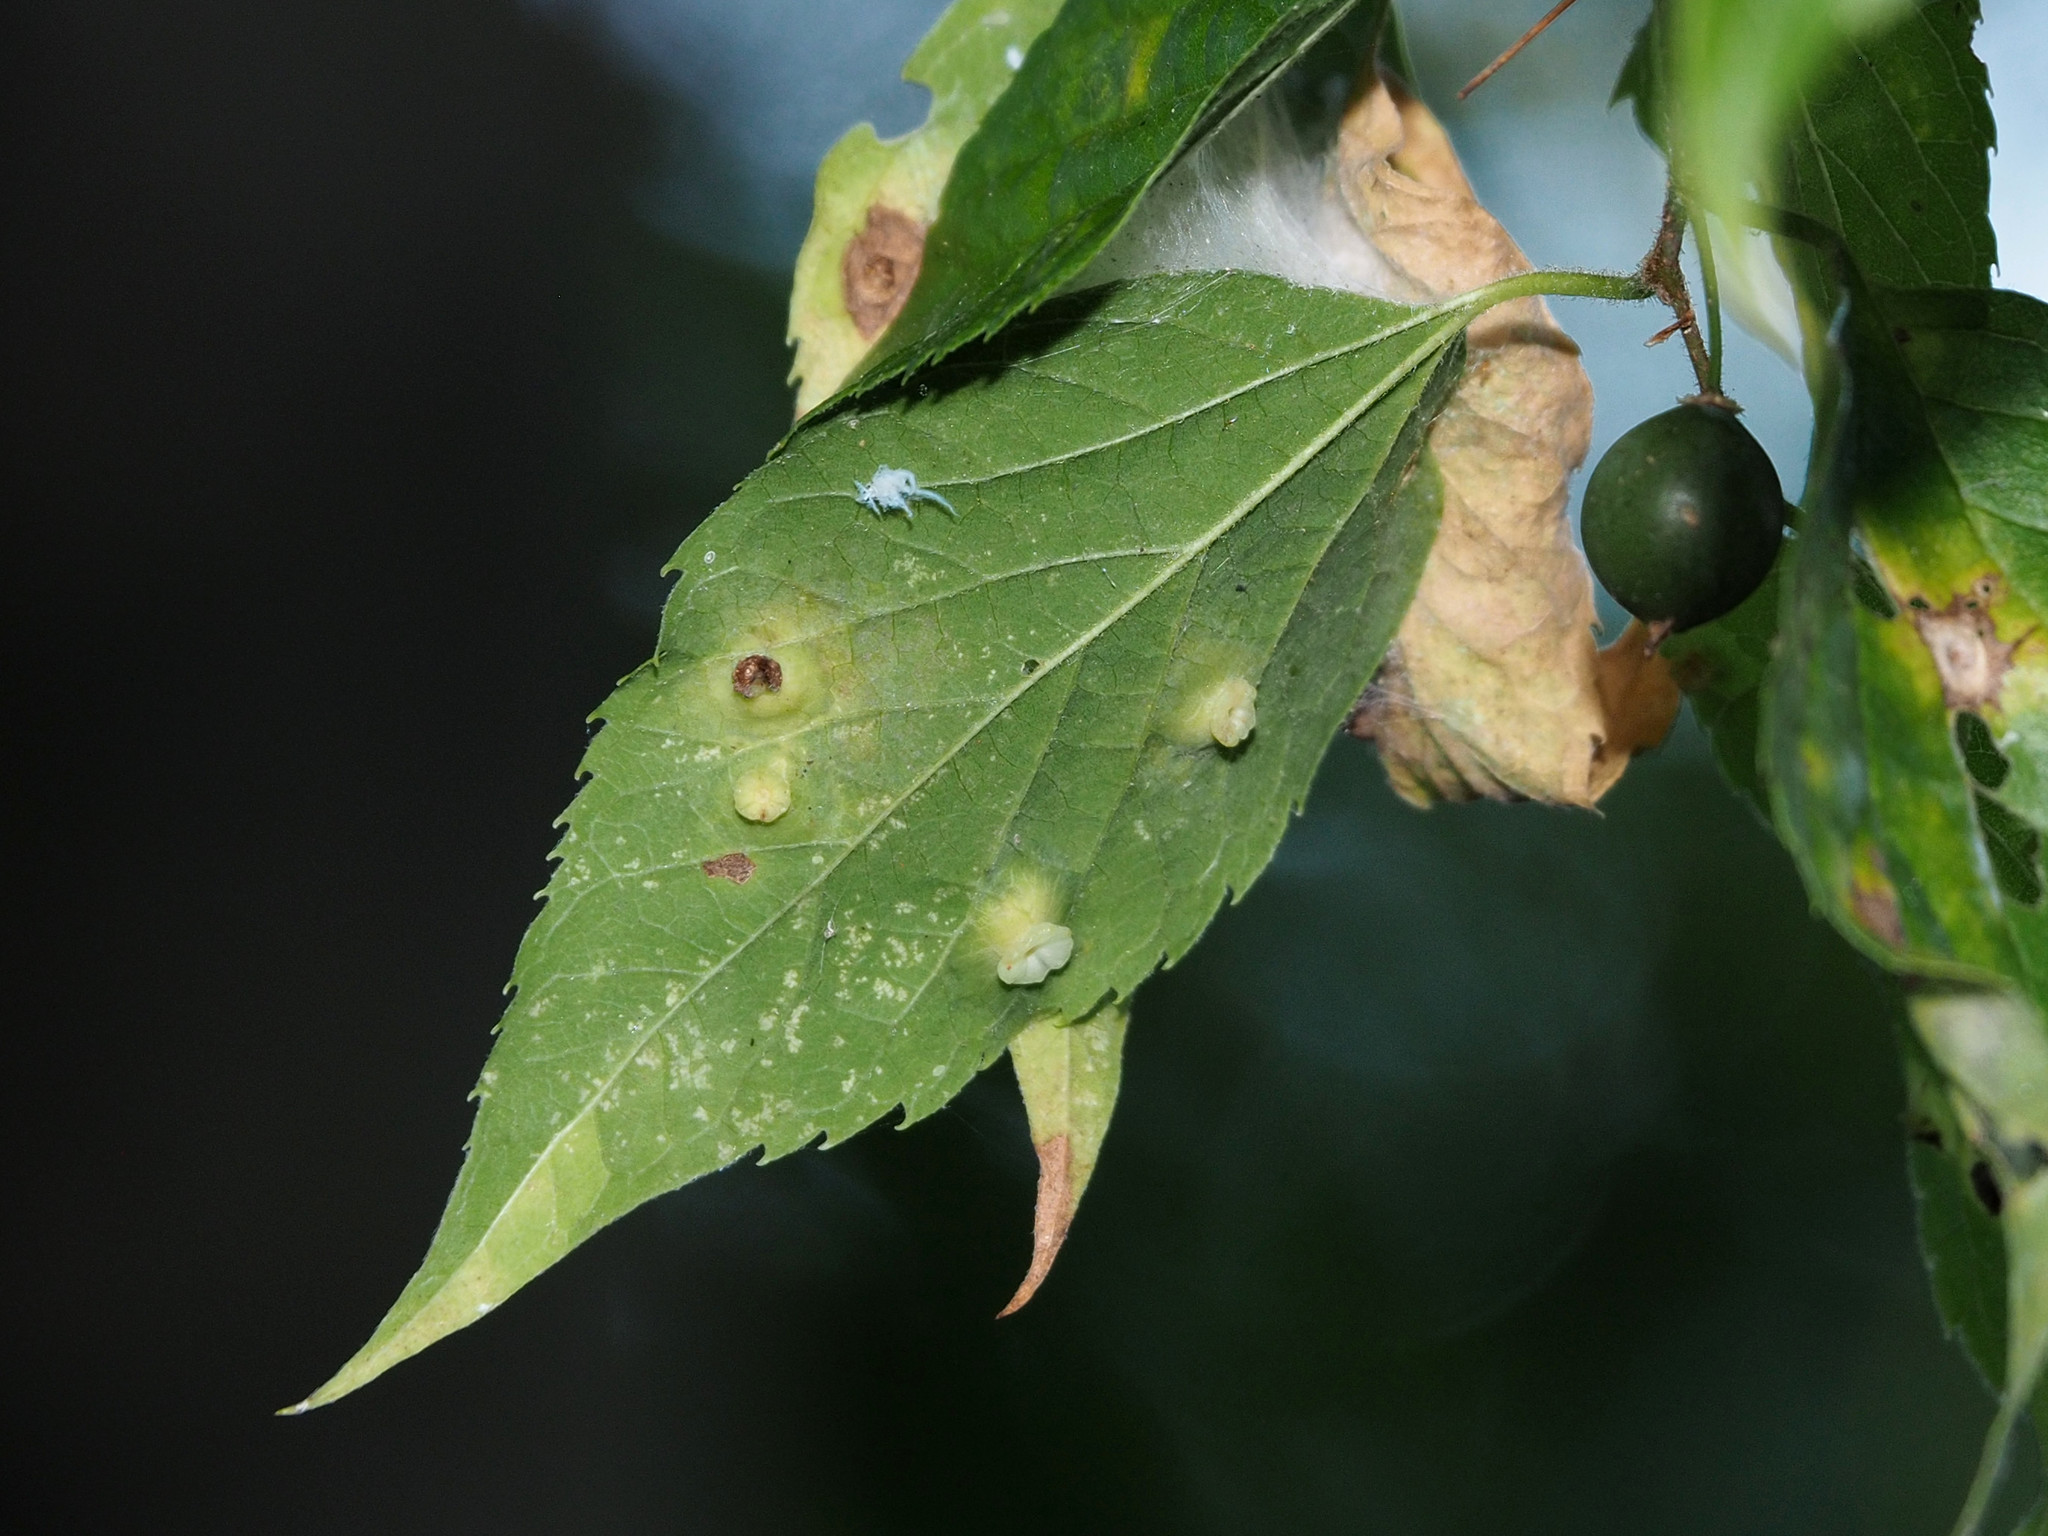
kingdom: Animalia
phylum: Arthropoda
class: Insecta
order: Hemiptera
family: Aphalaridae
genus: Pachypsylla
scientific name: Pachypsylla celtidisasterisca
